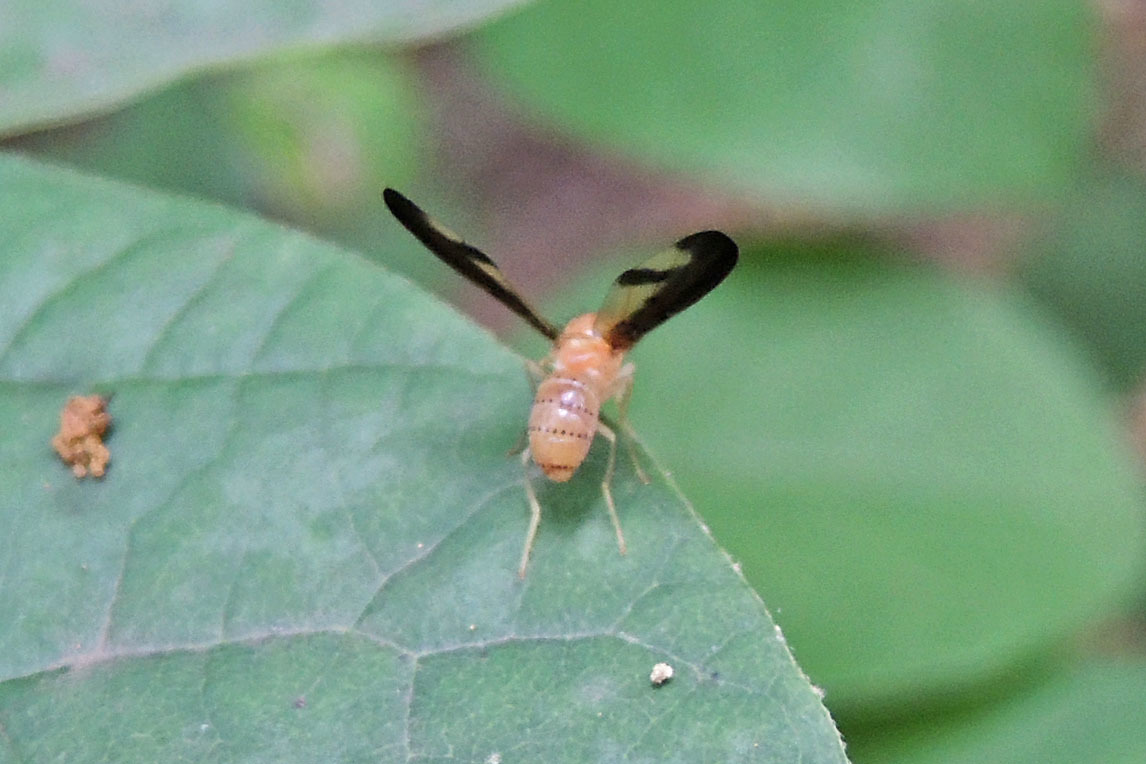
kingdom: Animalia
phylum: Arthropoda
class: Insecta
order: Diptera
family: Pallopteridae
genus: Toxonevra
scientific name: Toxonevra superba
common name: Antlered flutter fly
